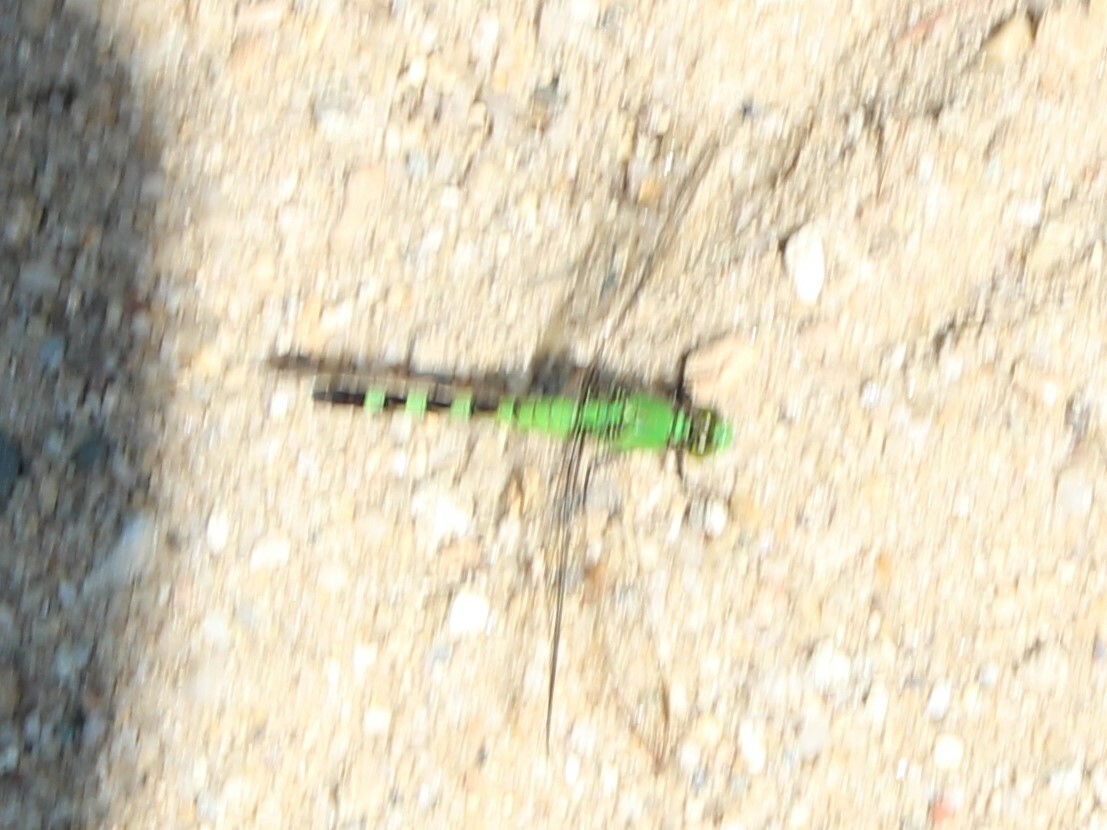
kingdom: Animalia
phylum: Arthropoda
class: Insecta
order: Odonata
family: Libellulidae
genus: Erythemis
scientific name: Erythemis simplicicollis
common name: Eastern pondhawk
